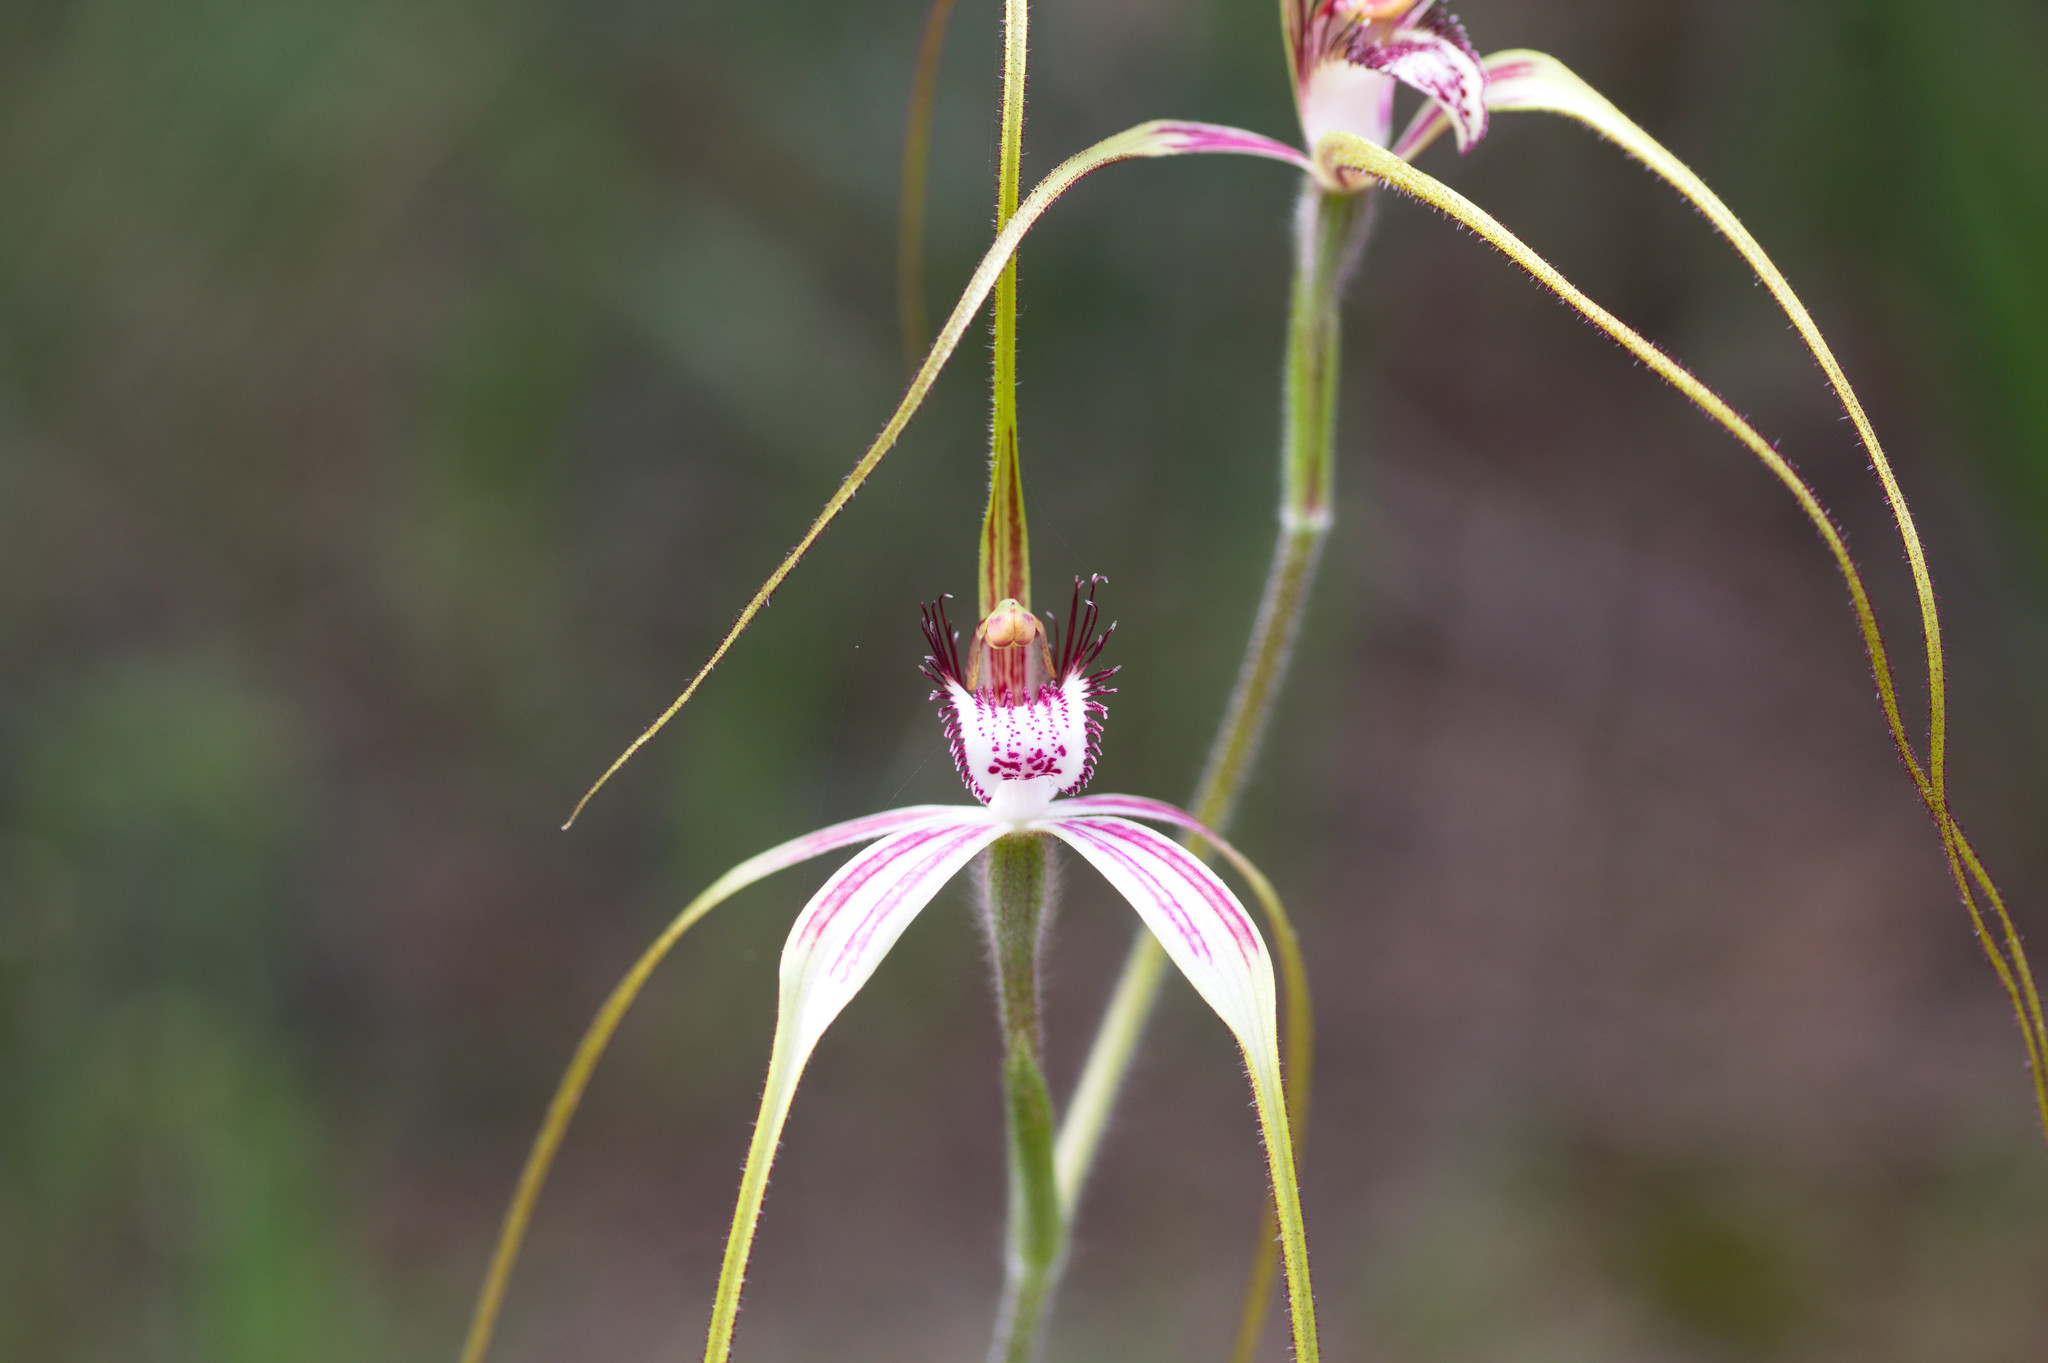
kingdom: Plantae
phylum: Tracheophyta
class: Liliopsida
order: Asparagales
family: Orchidaceae
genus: Caladenia
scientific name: Caladenia
